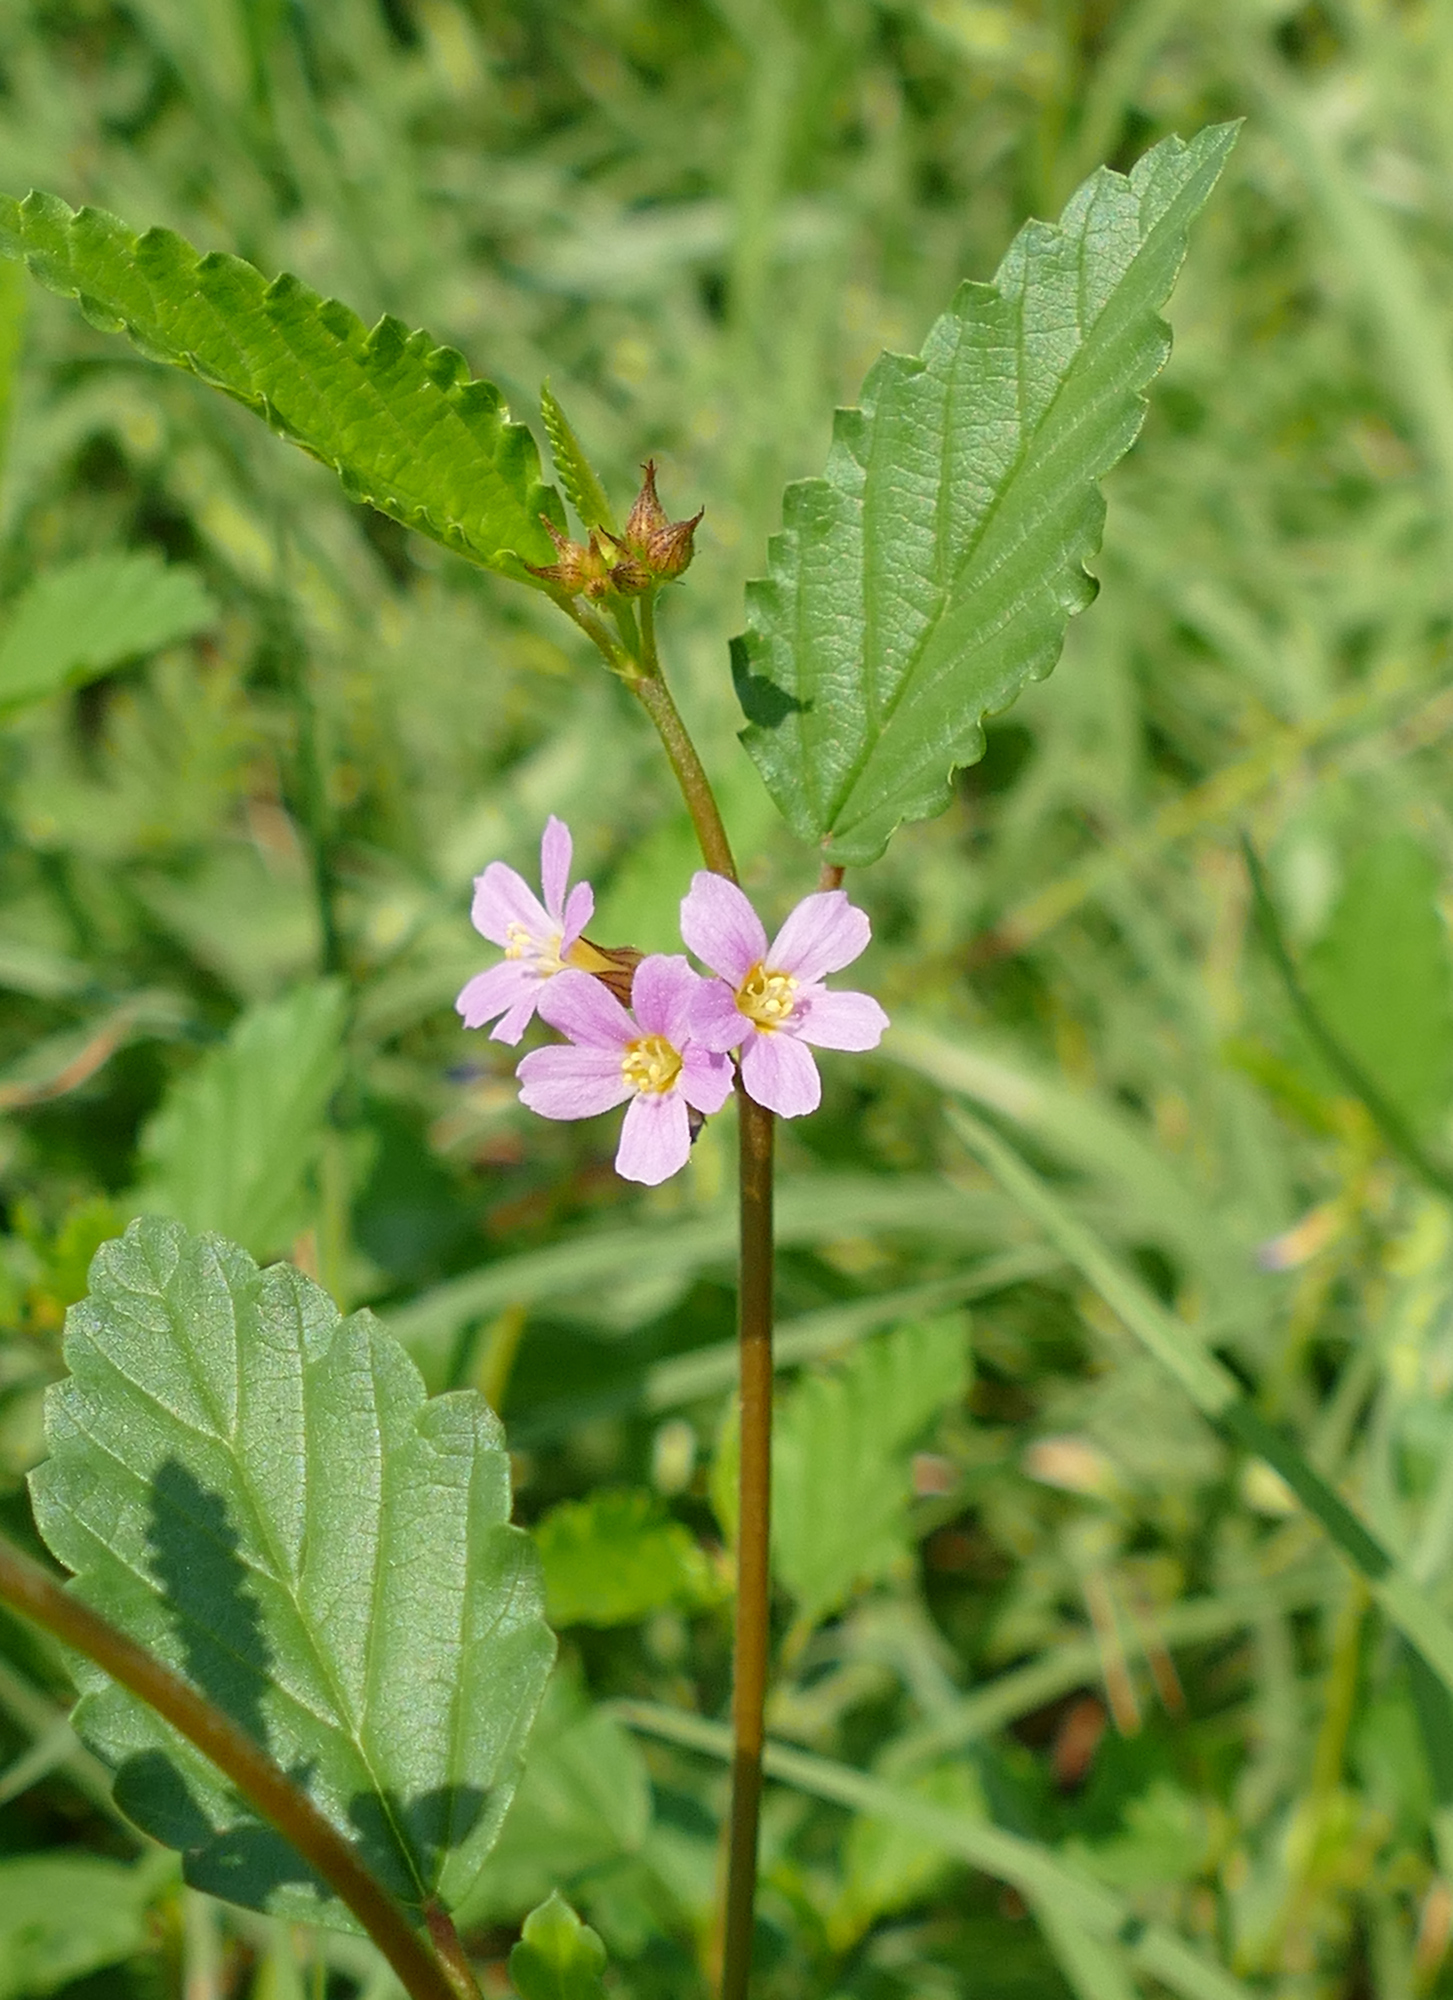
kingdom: Plantae
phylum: Tracheophyta
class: Magnoliopsida
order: Malvales
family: Malvaceae
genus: Melochia
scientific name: Melochia pyramidata
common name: Pyramidflower
